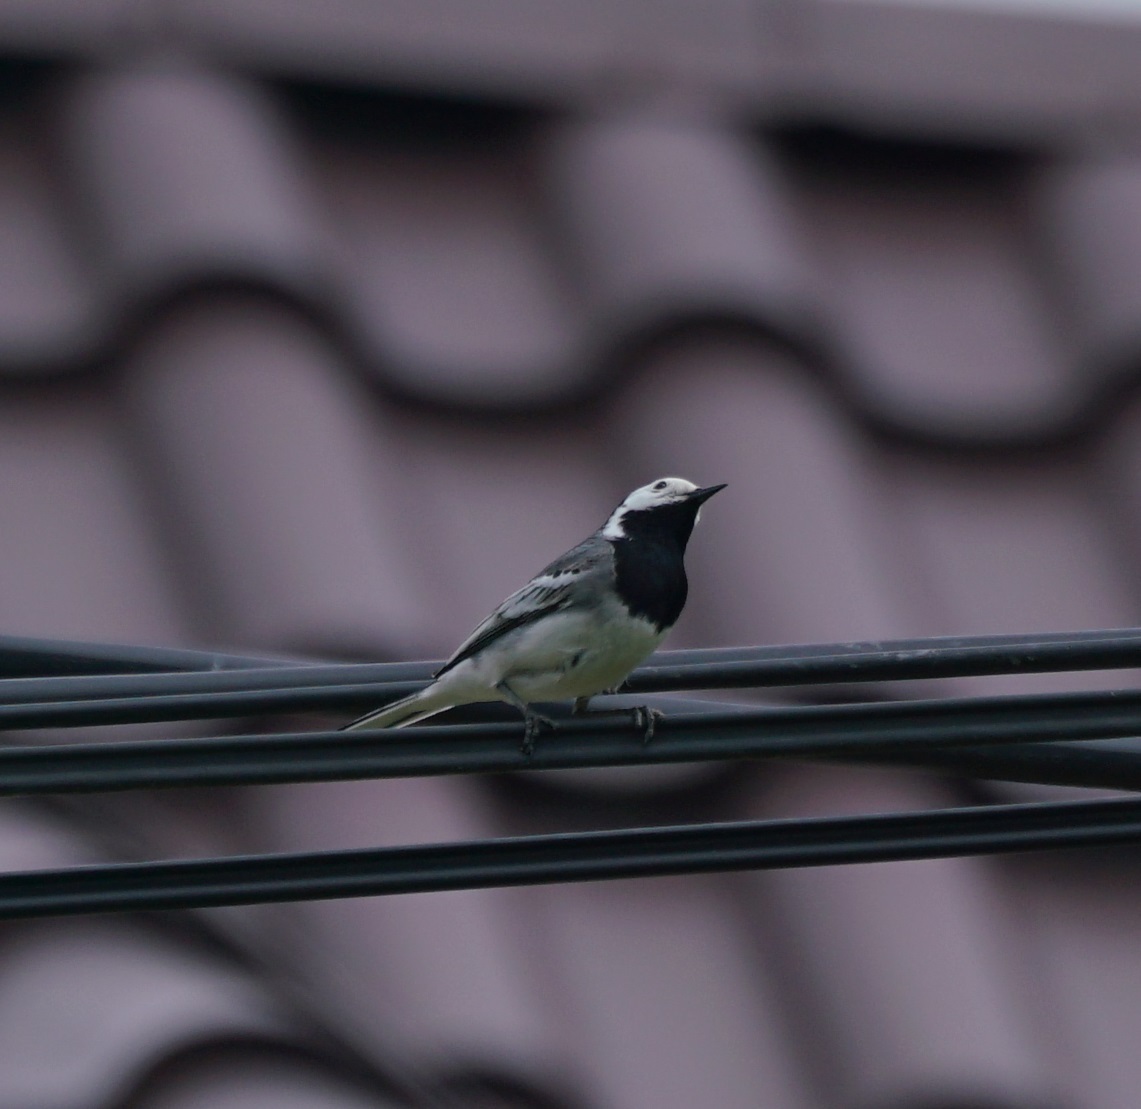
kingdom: Animalia
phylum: Chordata
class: Aves
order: Passeriformes
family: Motacillidae
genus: Motacilla
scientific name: Motacilla alba
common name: White wagtail
